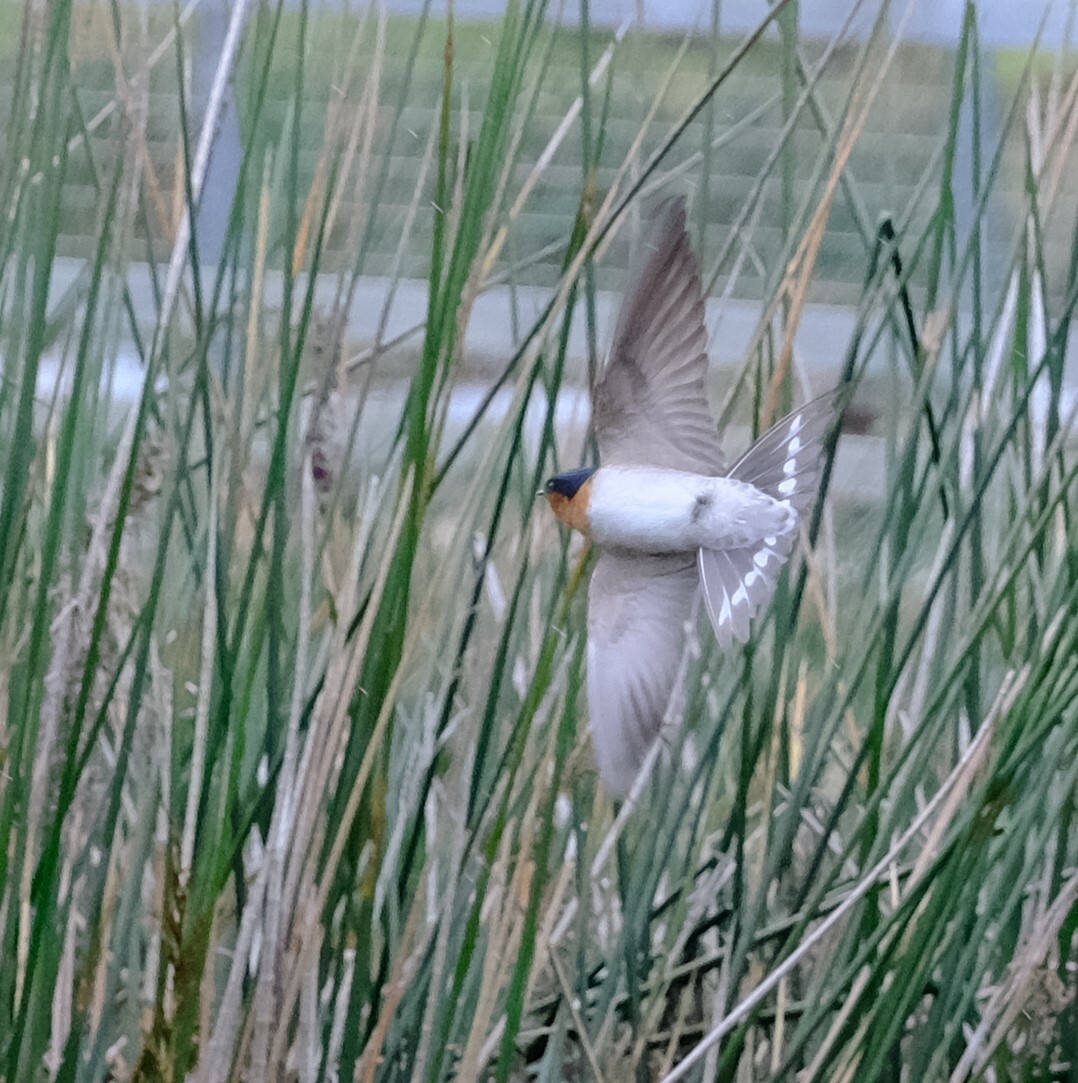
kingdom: Animalia
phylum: Chordata
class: Aves
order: Passeriformes
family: Hirundinidae
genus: Hirundo
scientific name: Hirundo neoxena
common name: Welcome swallow
